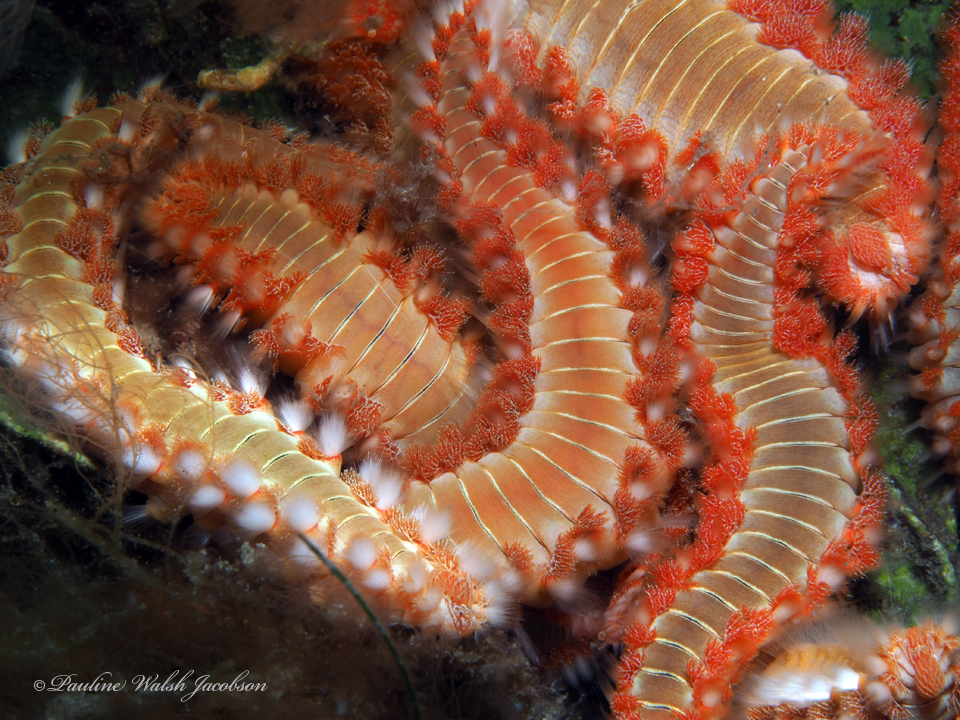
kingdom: Animalia
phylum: Annelida
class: Polychaeta
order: Amphinomida
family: Amphinomidae
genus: Hermodice
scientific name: Hermodice carunculata
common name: Bearded fireworm
